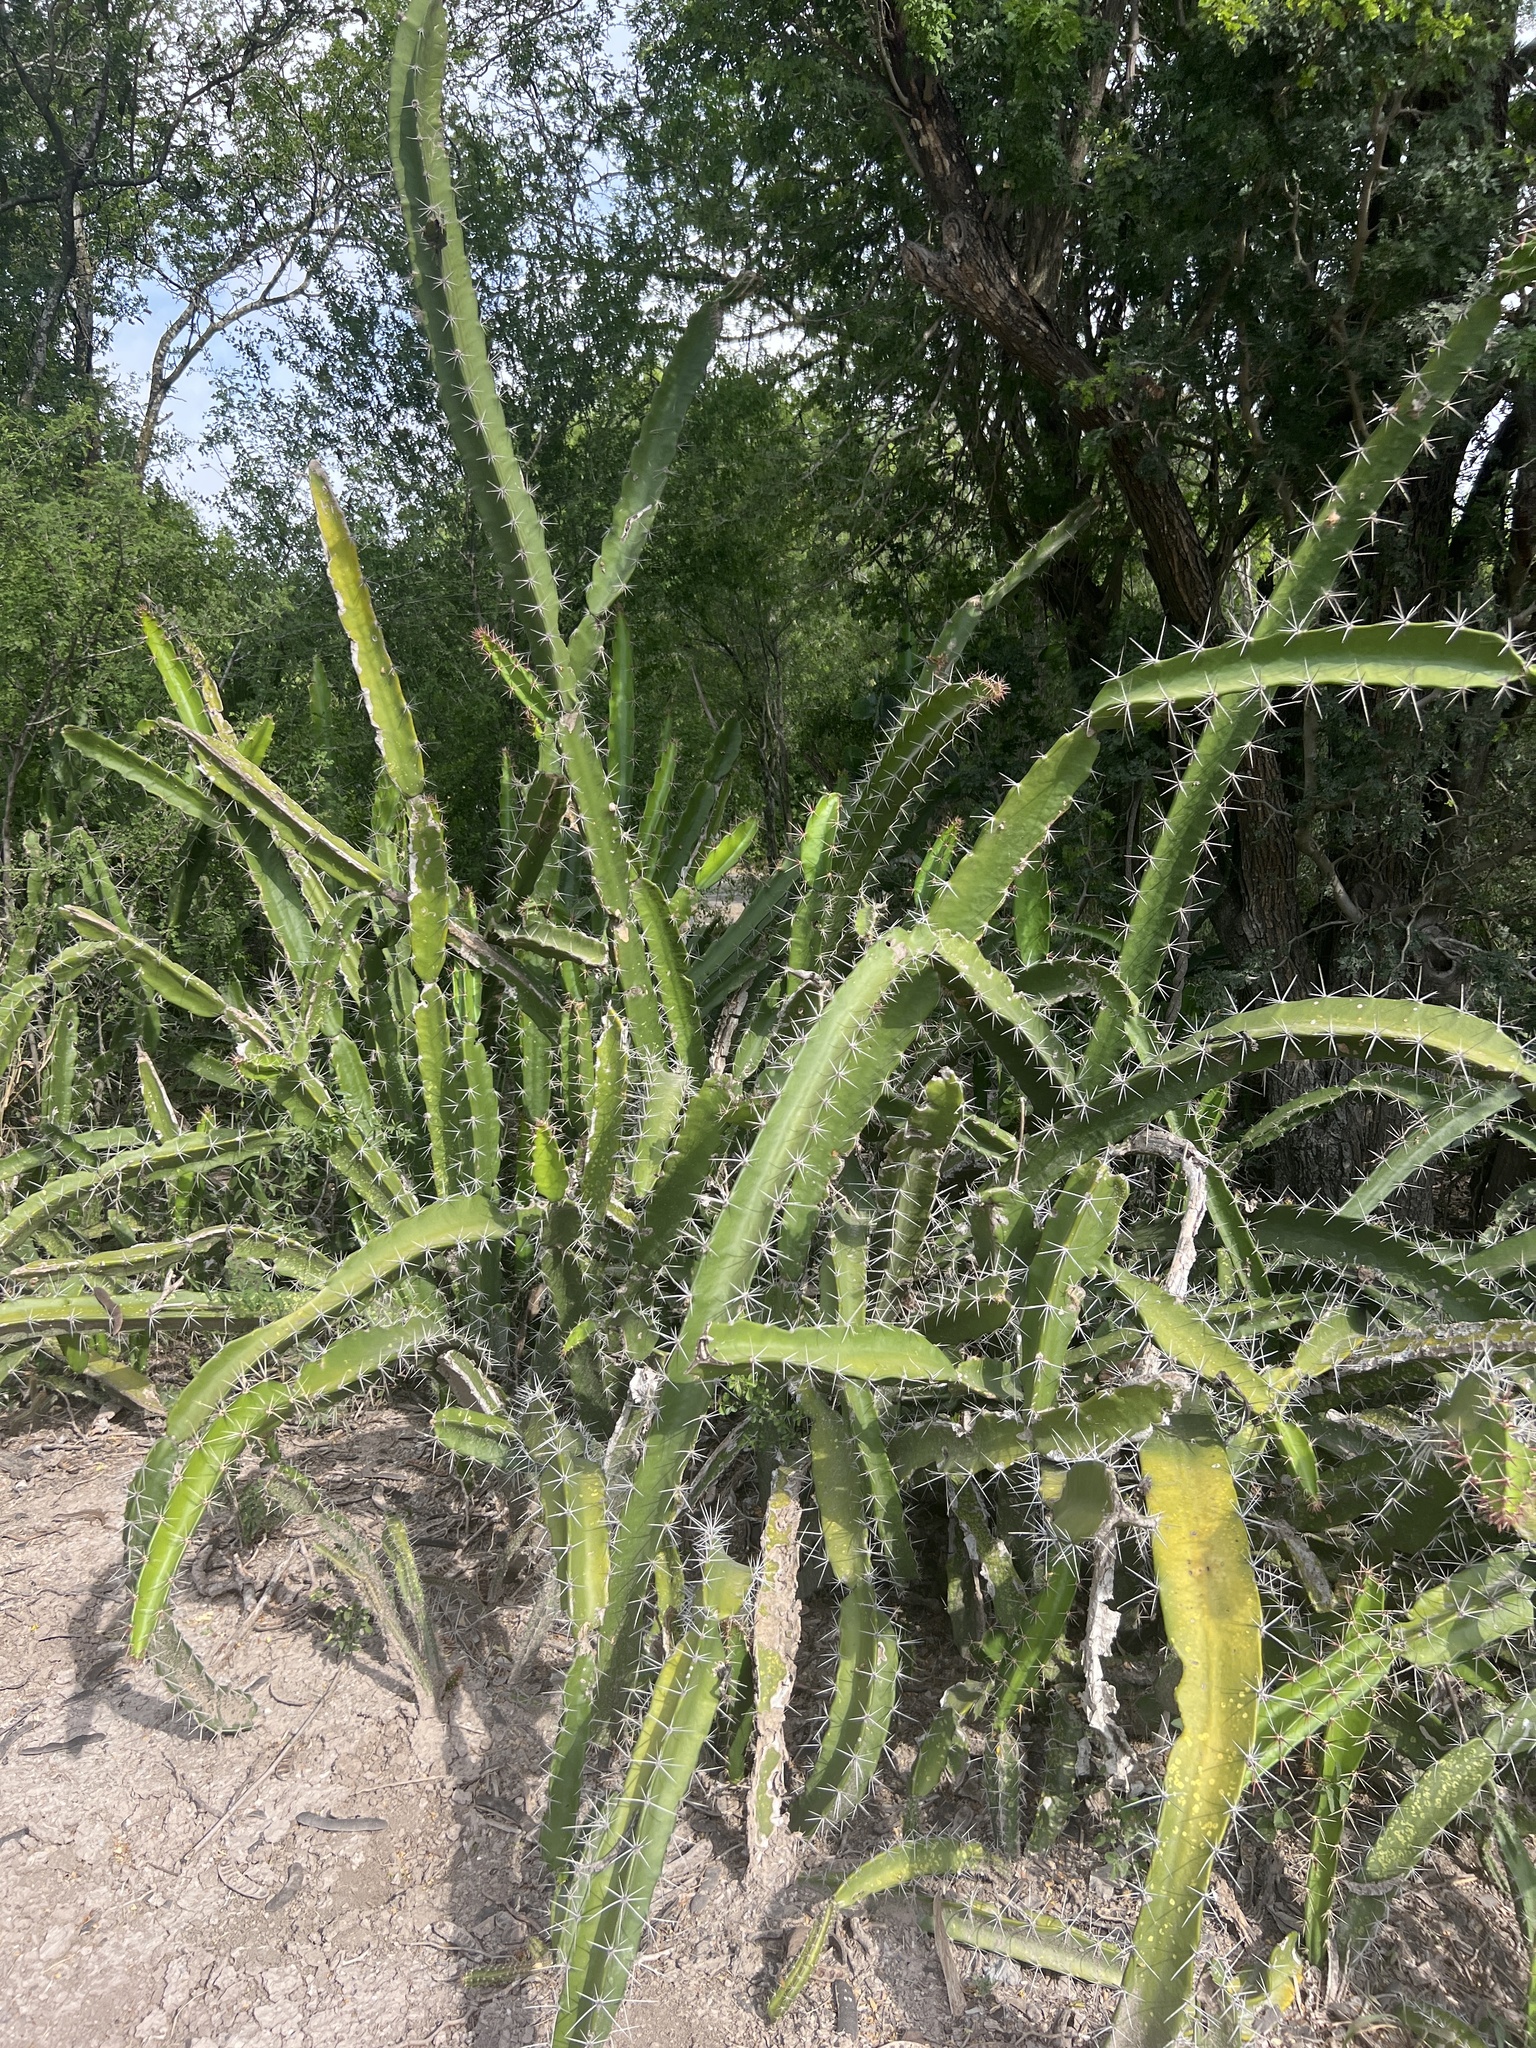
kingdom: Plantae
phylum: Tracheophyta
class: Magnoliopsida
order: Caryophyllales
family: Cactaceae
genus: Acanthocereus
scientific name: Acanthocereus tetragonus
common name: Triangle cactus
